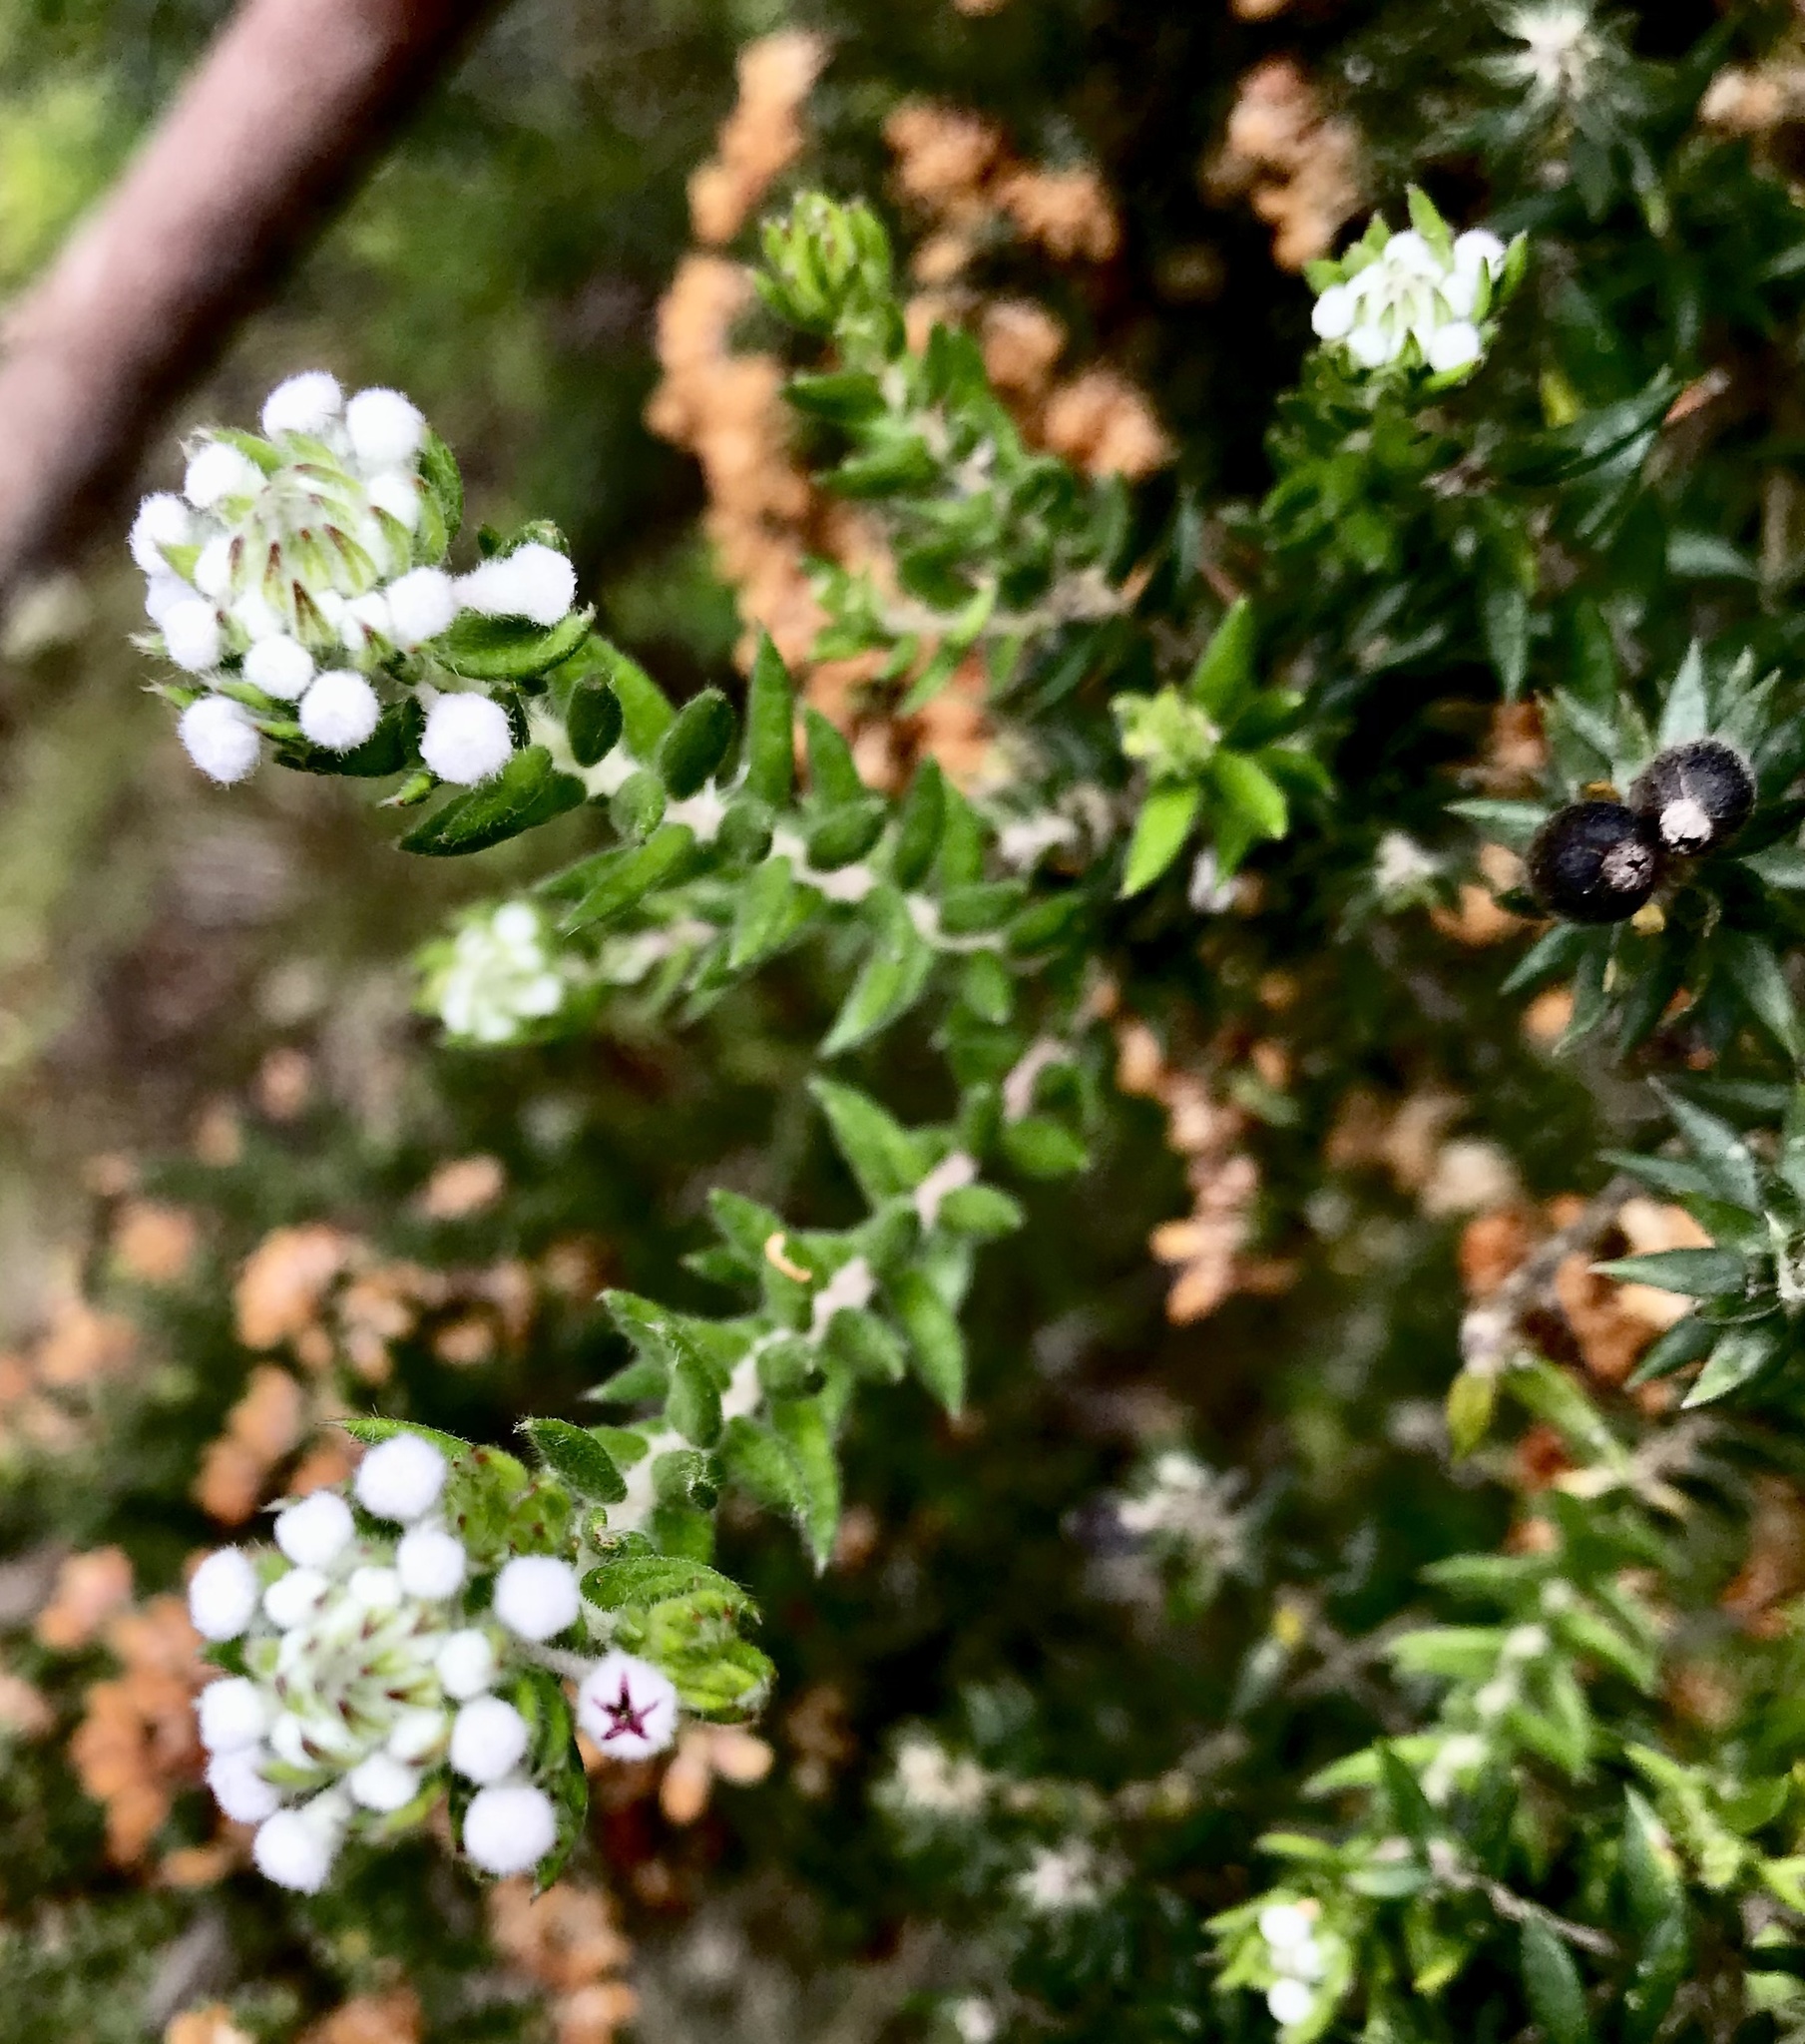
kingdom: Plantae
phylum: Tracheophyta
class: Magnoliopsida
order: Rosales
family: Rhamnaceae
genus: Phylica
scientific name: Phylica pinea
